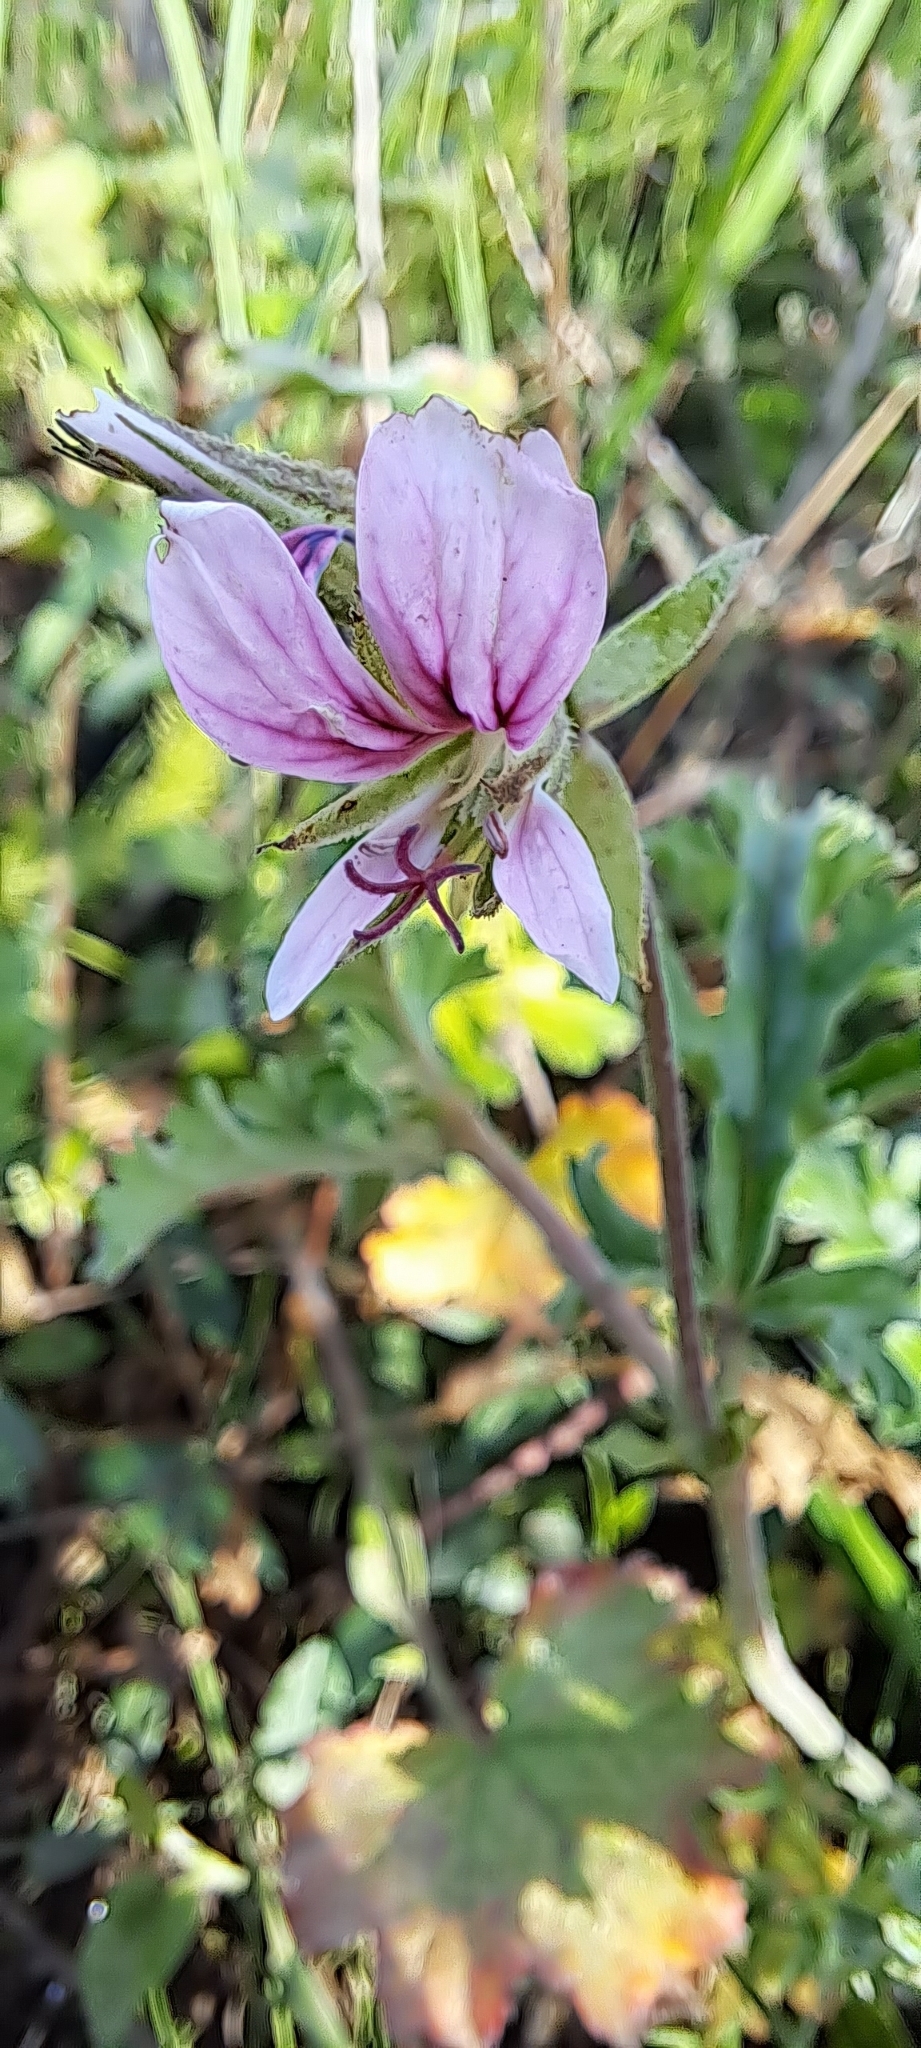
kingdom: Plantae
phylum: Tracheophyta
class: Magnoliopsida
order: Geraniales
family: Geraniaceae
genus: Pelargonium
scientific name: Pelargonium candicans
